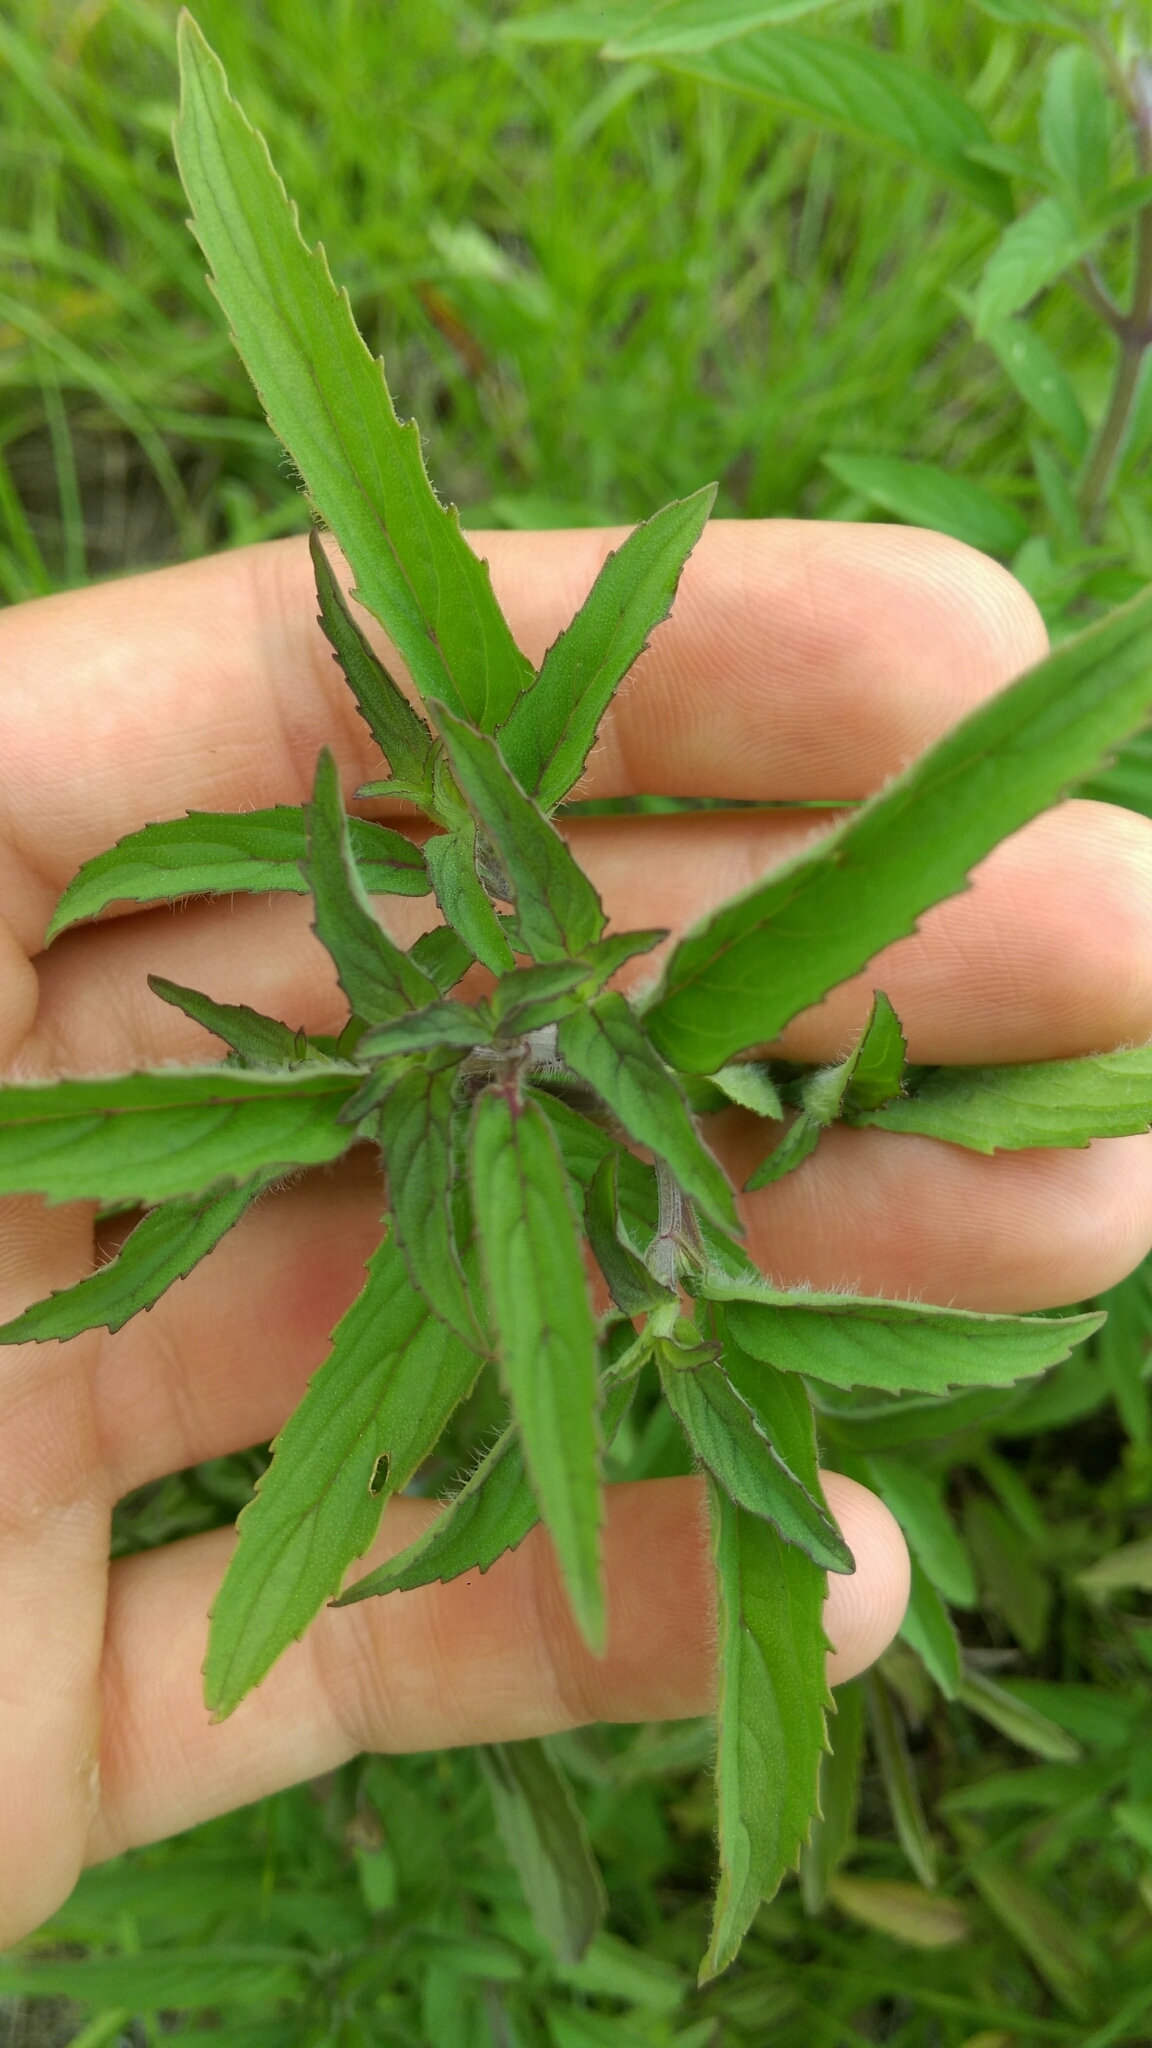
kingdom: Plantae
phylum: Tracheophyta
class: Magnoliopsida
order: Lamiales
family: Lamiaceae
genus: Monarda
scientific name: Monarda punctata
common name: Dotted monarda
